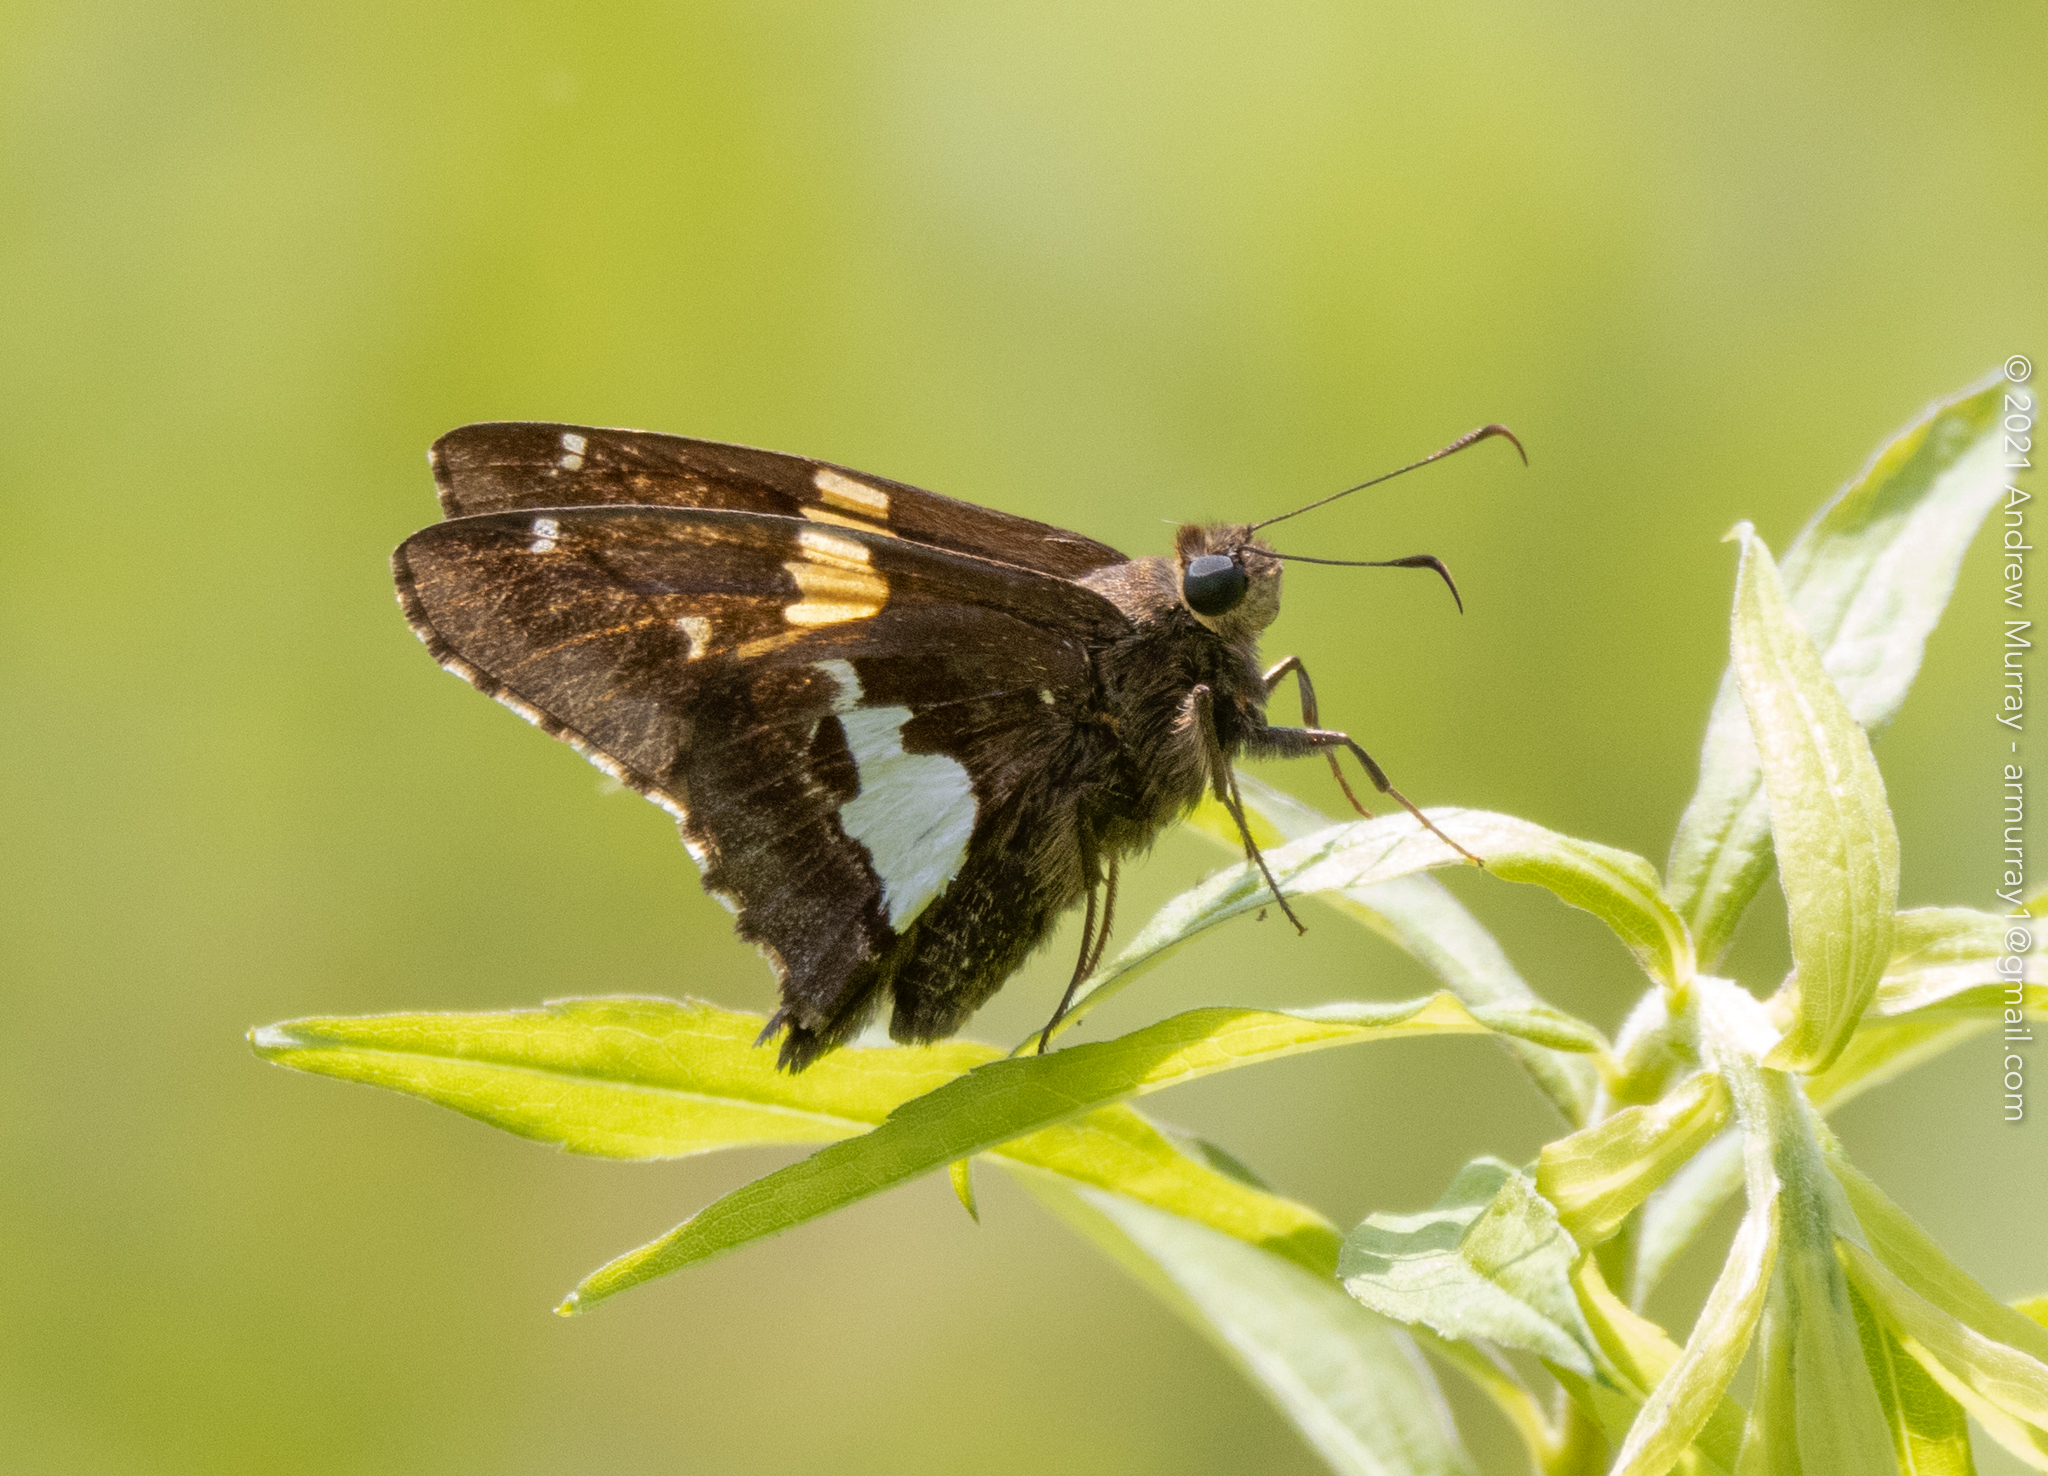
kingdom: Animalia
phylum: Arthropoda
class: Insecta
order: Lepidoptera
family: Hesperiidae
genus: Epargyreus
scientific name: Epargyreus clarus
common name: Silver-spotted skipper
